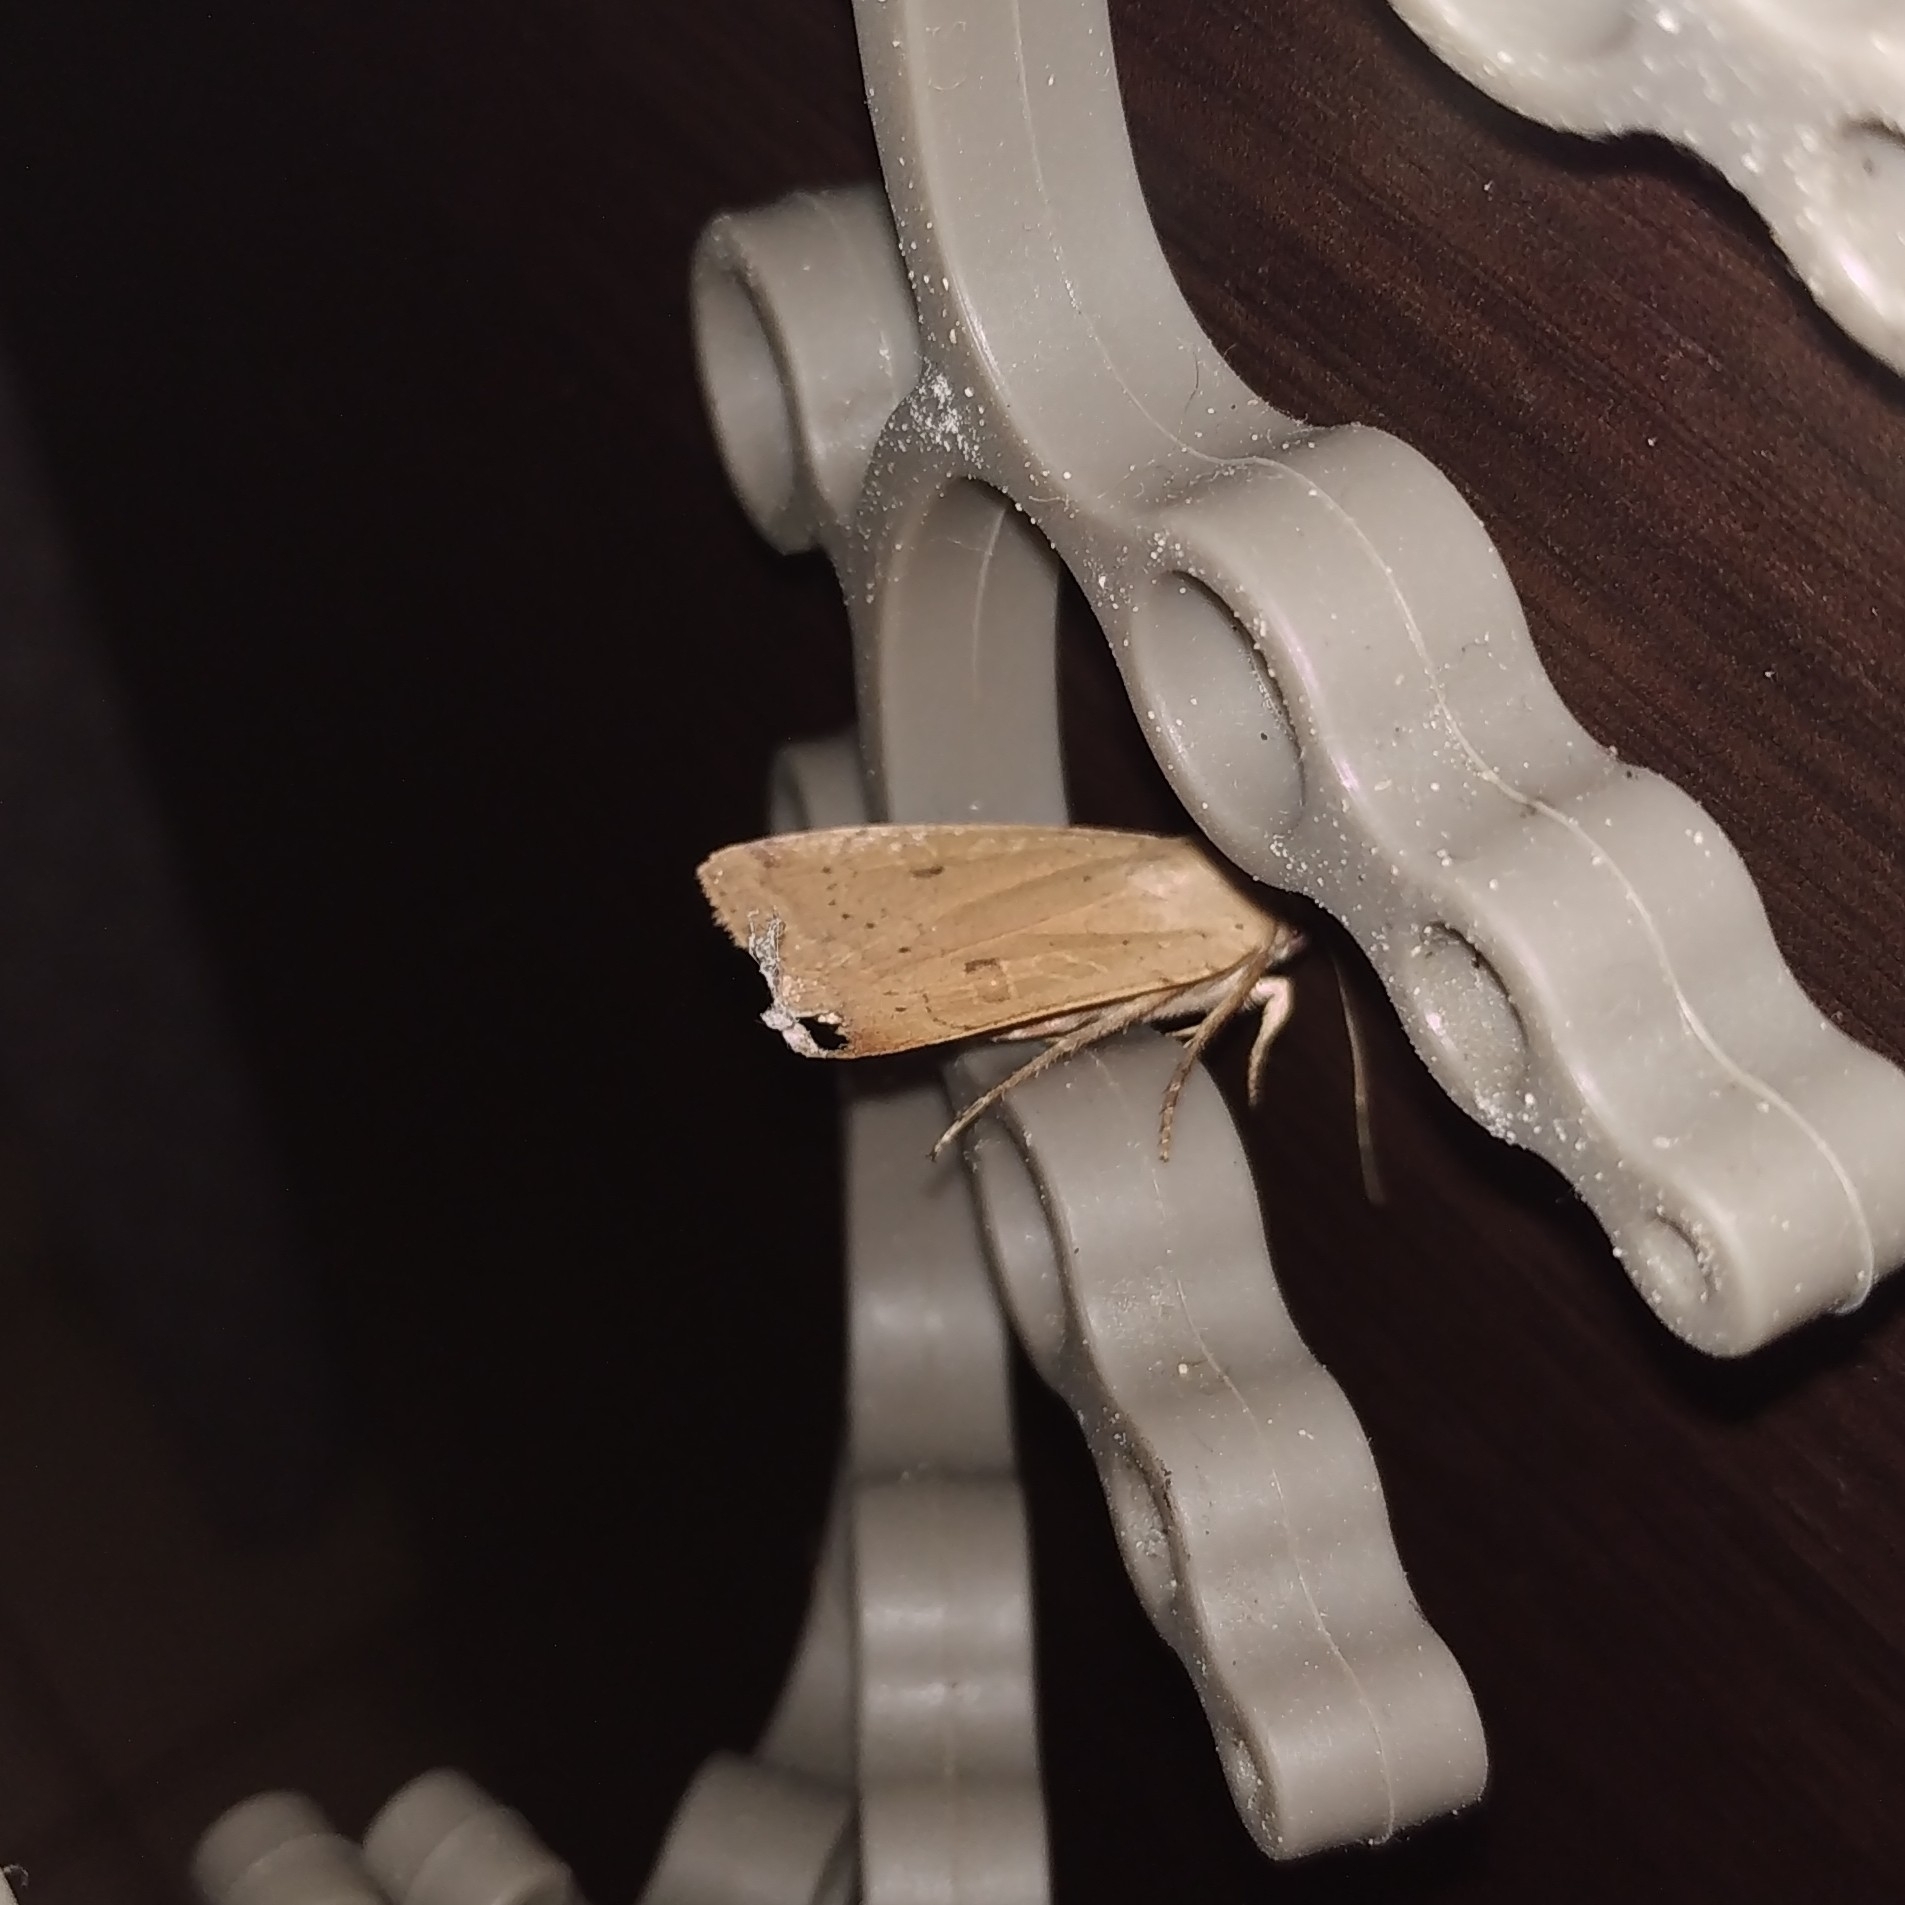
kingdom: Animalia
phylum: Arthropoda
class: Insecta
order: Lepidoptera
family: Noctuidae
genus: Noctua
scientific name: Noctua comes
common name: Lesser yellow underwing
